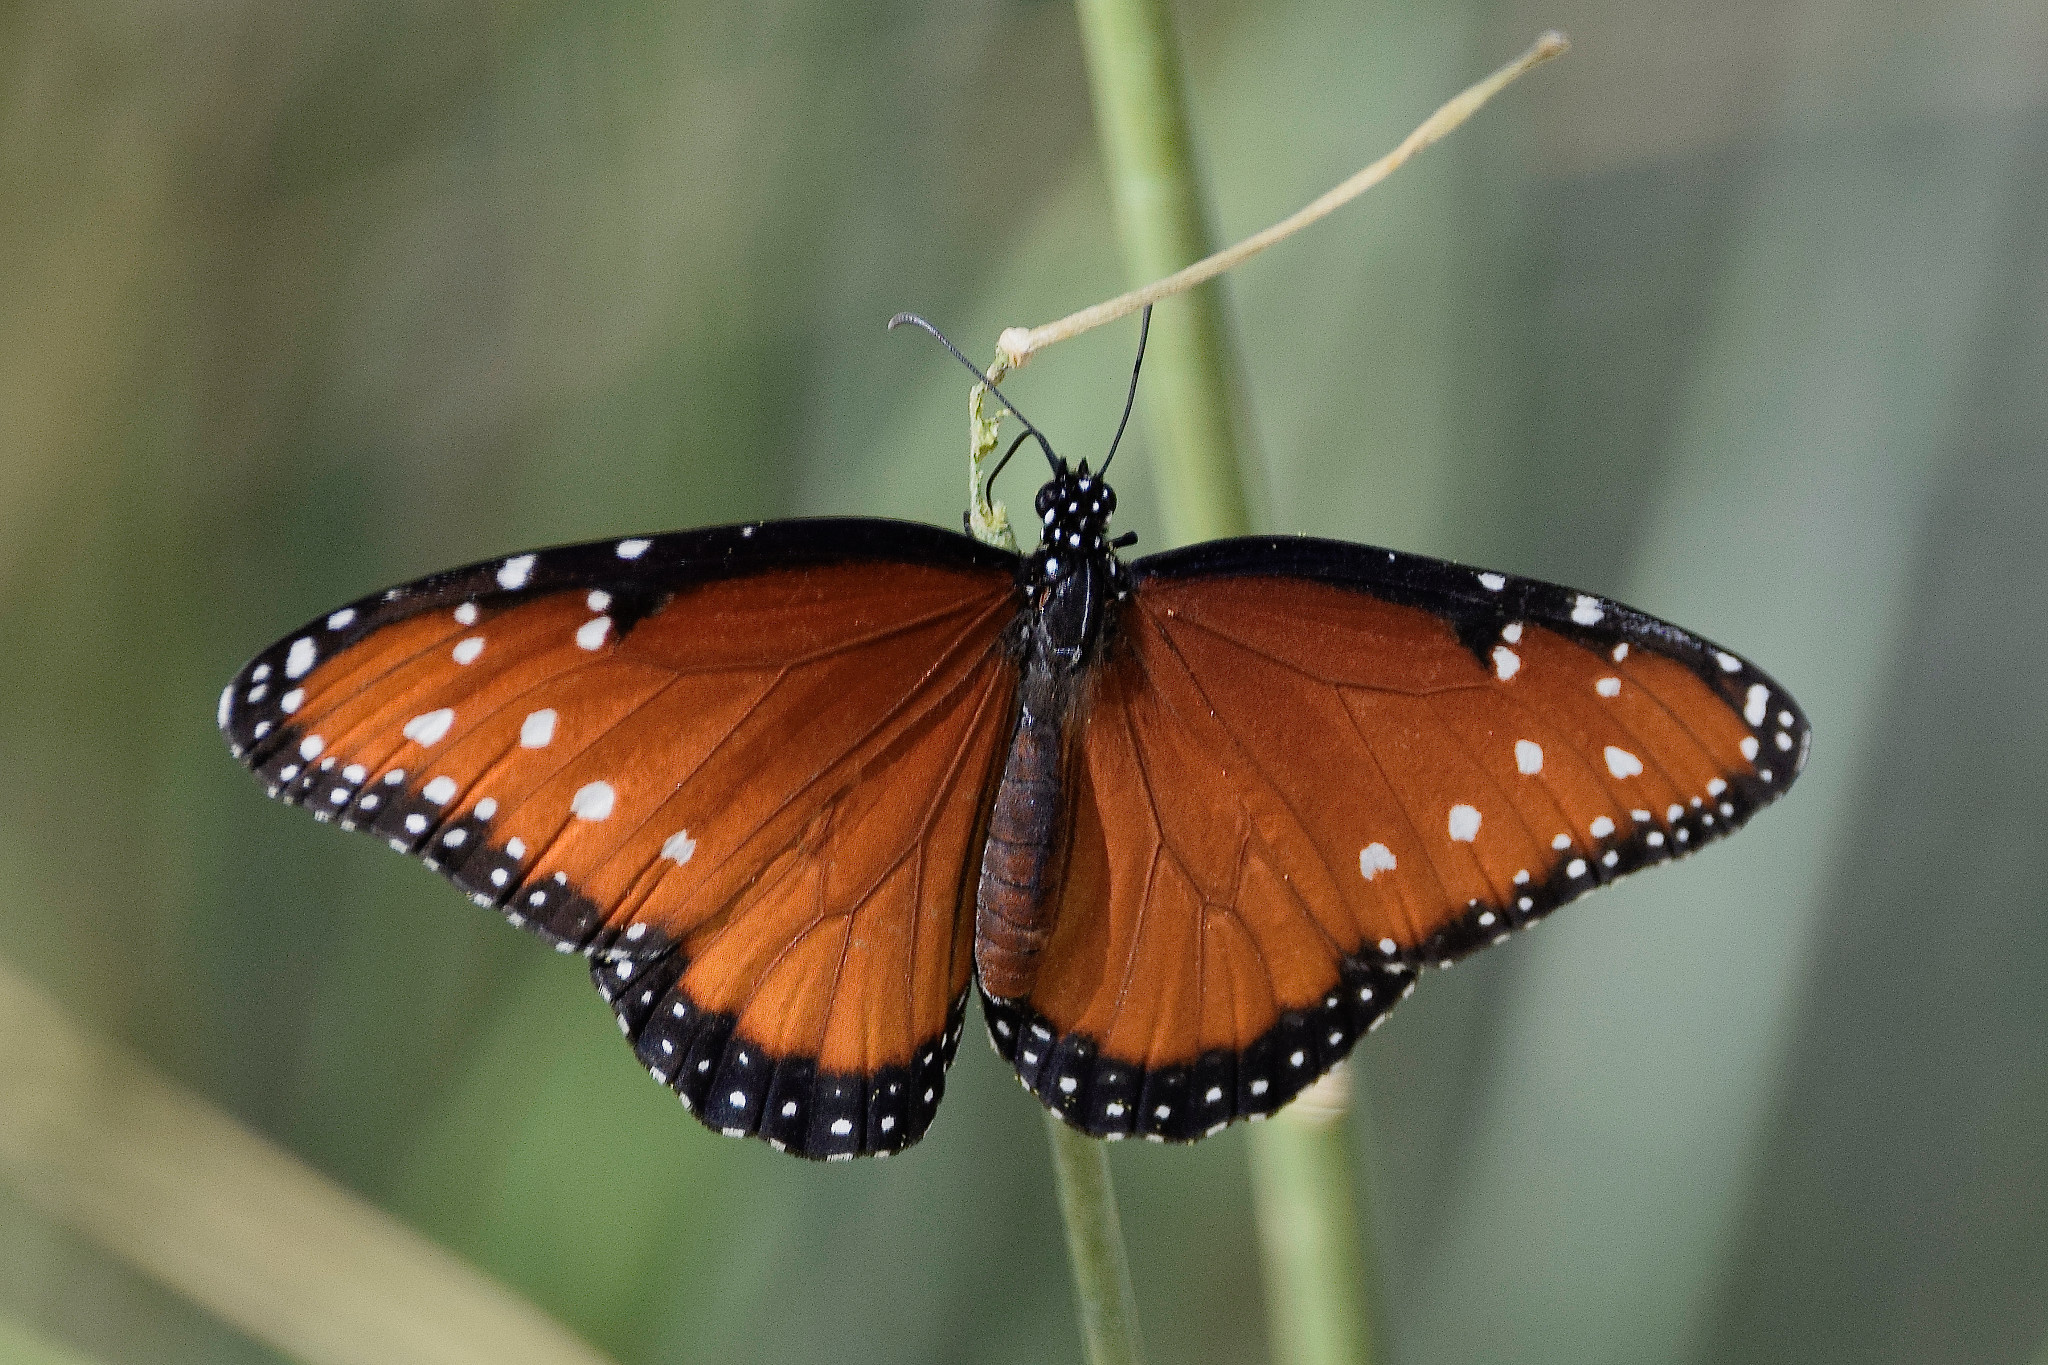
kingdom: Animalia
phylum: Arthropoda
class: Insecta
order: Lepidoptera
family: Nymphalidae
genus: Danaus
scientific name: Danaus gilippus
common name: Queen
